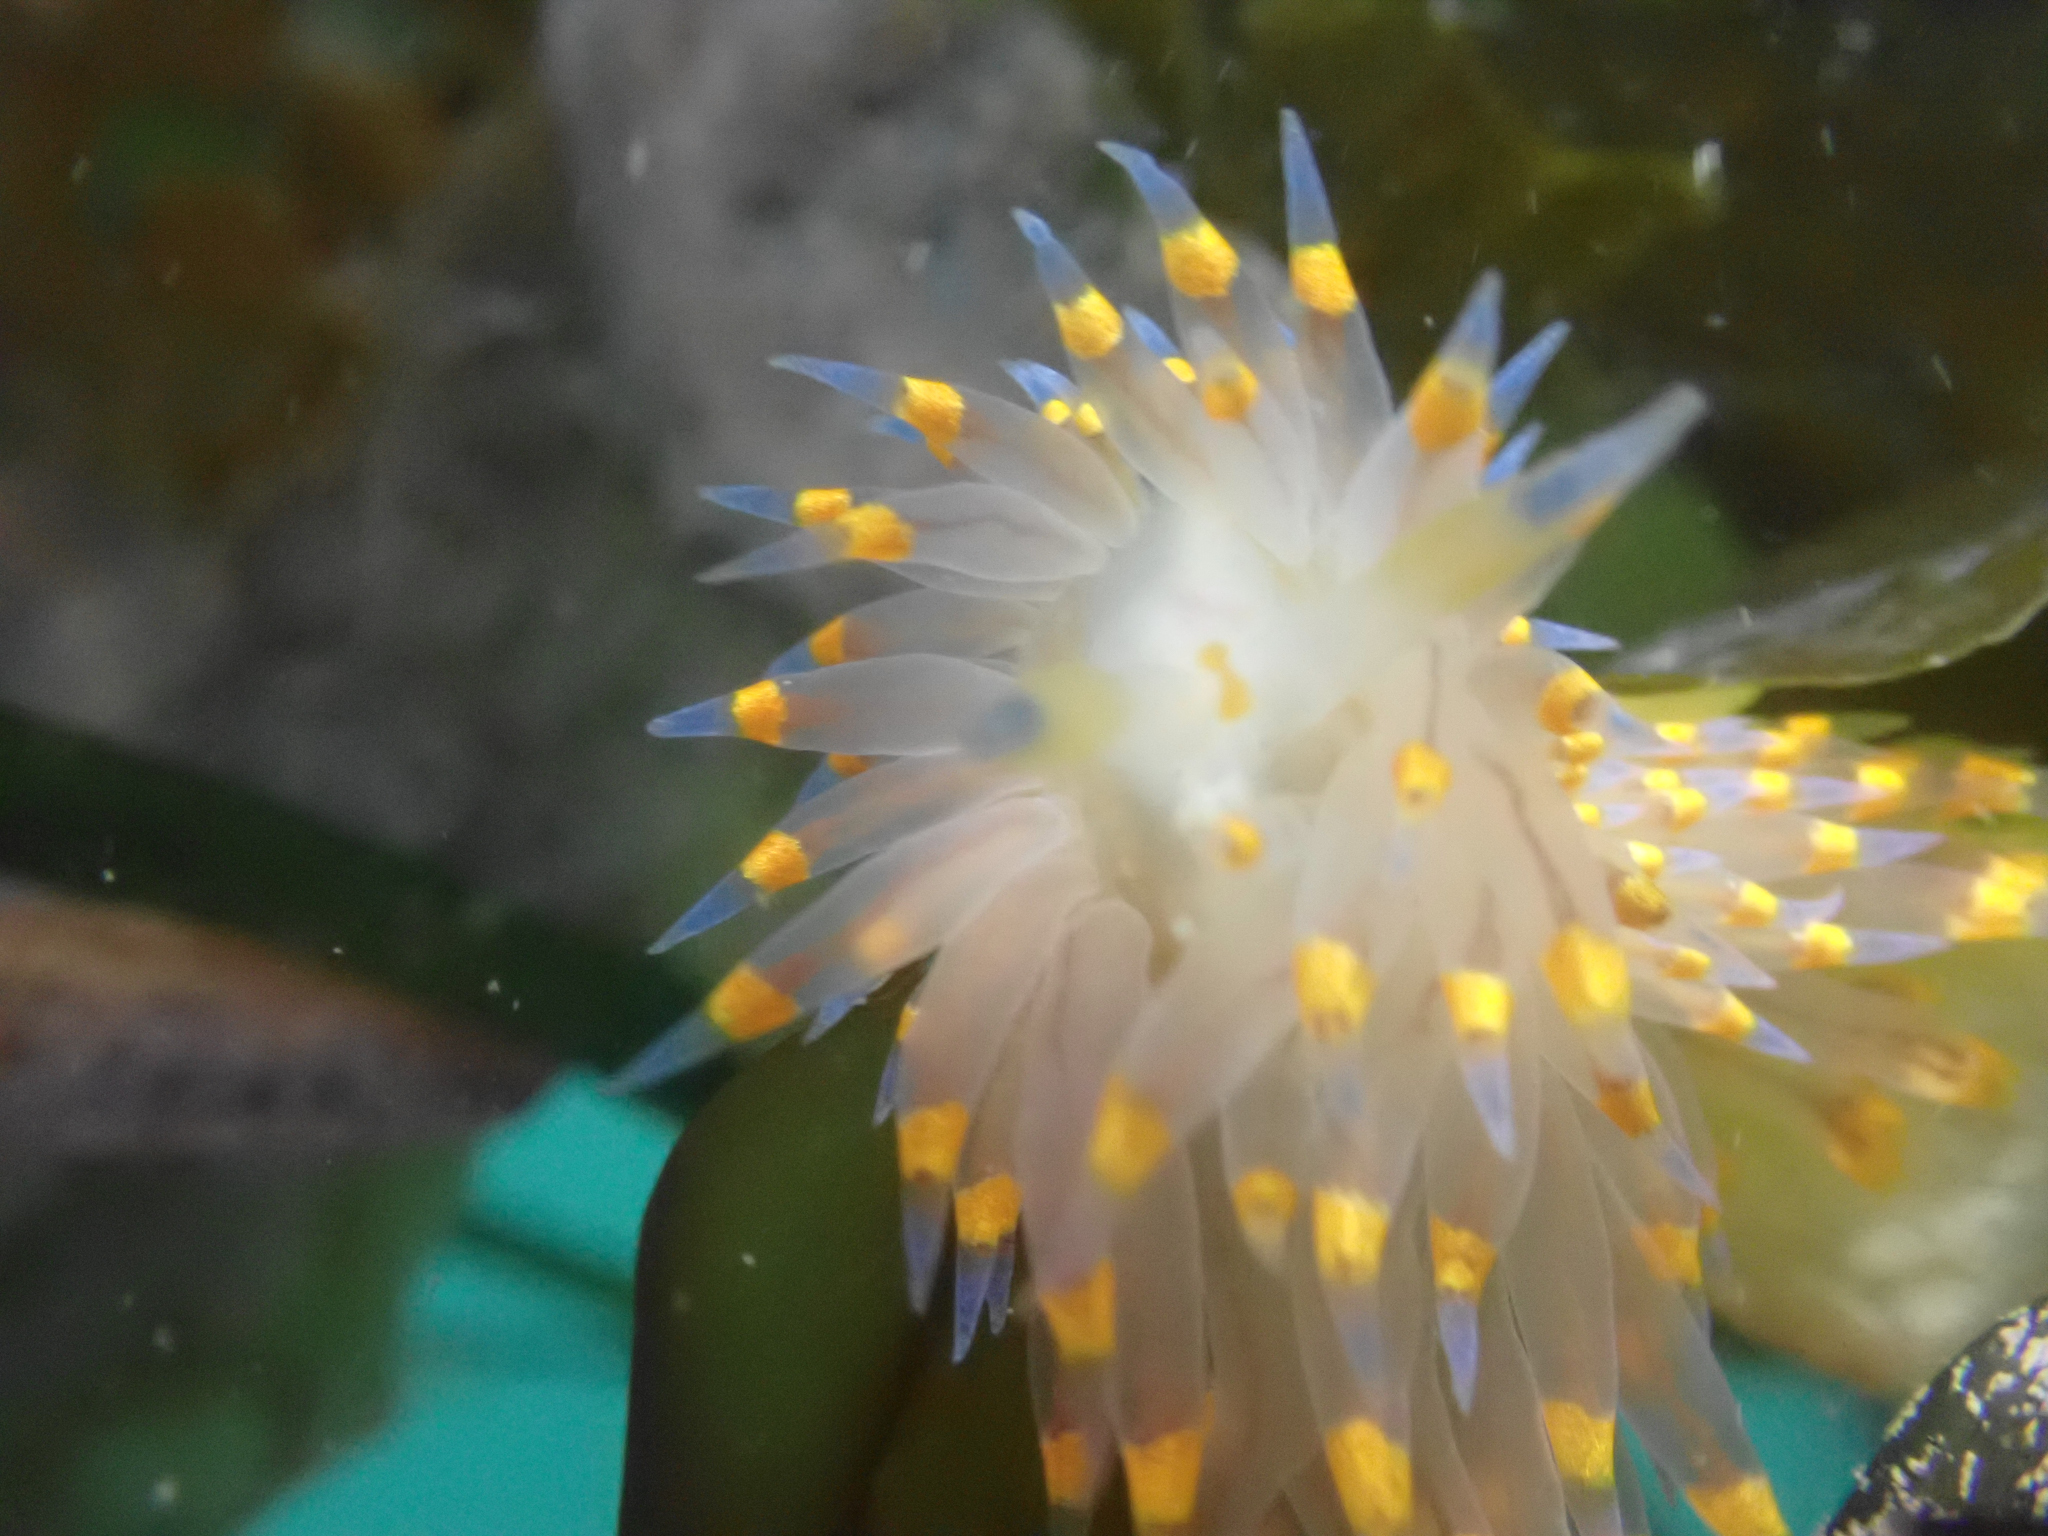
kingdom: Animalia
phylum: Mollusca
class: Gastropoda
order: Nudibranchia
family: Janolidae
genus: Antiopella
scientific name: Antiopella barbarensis
